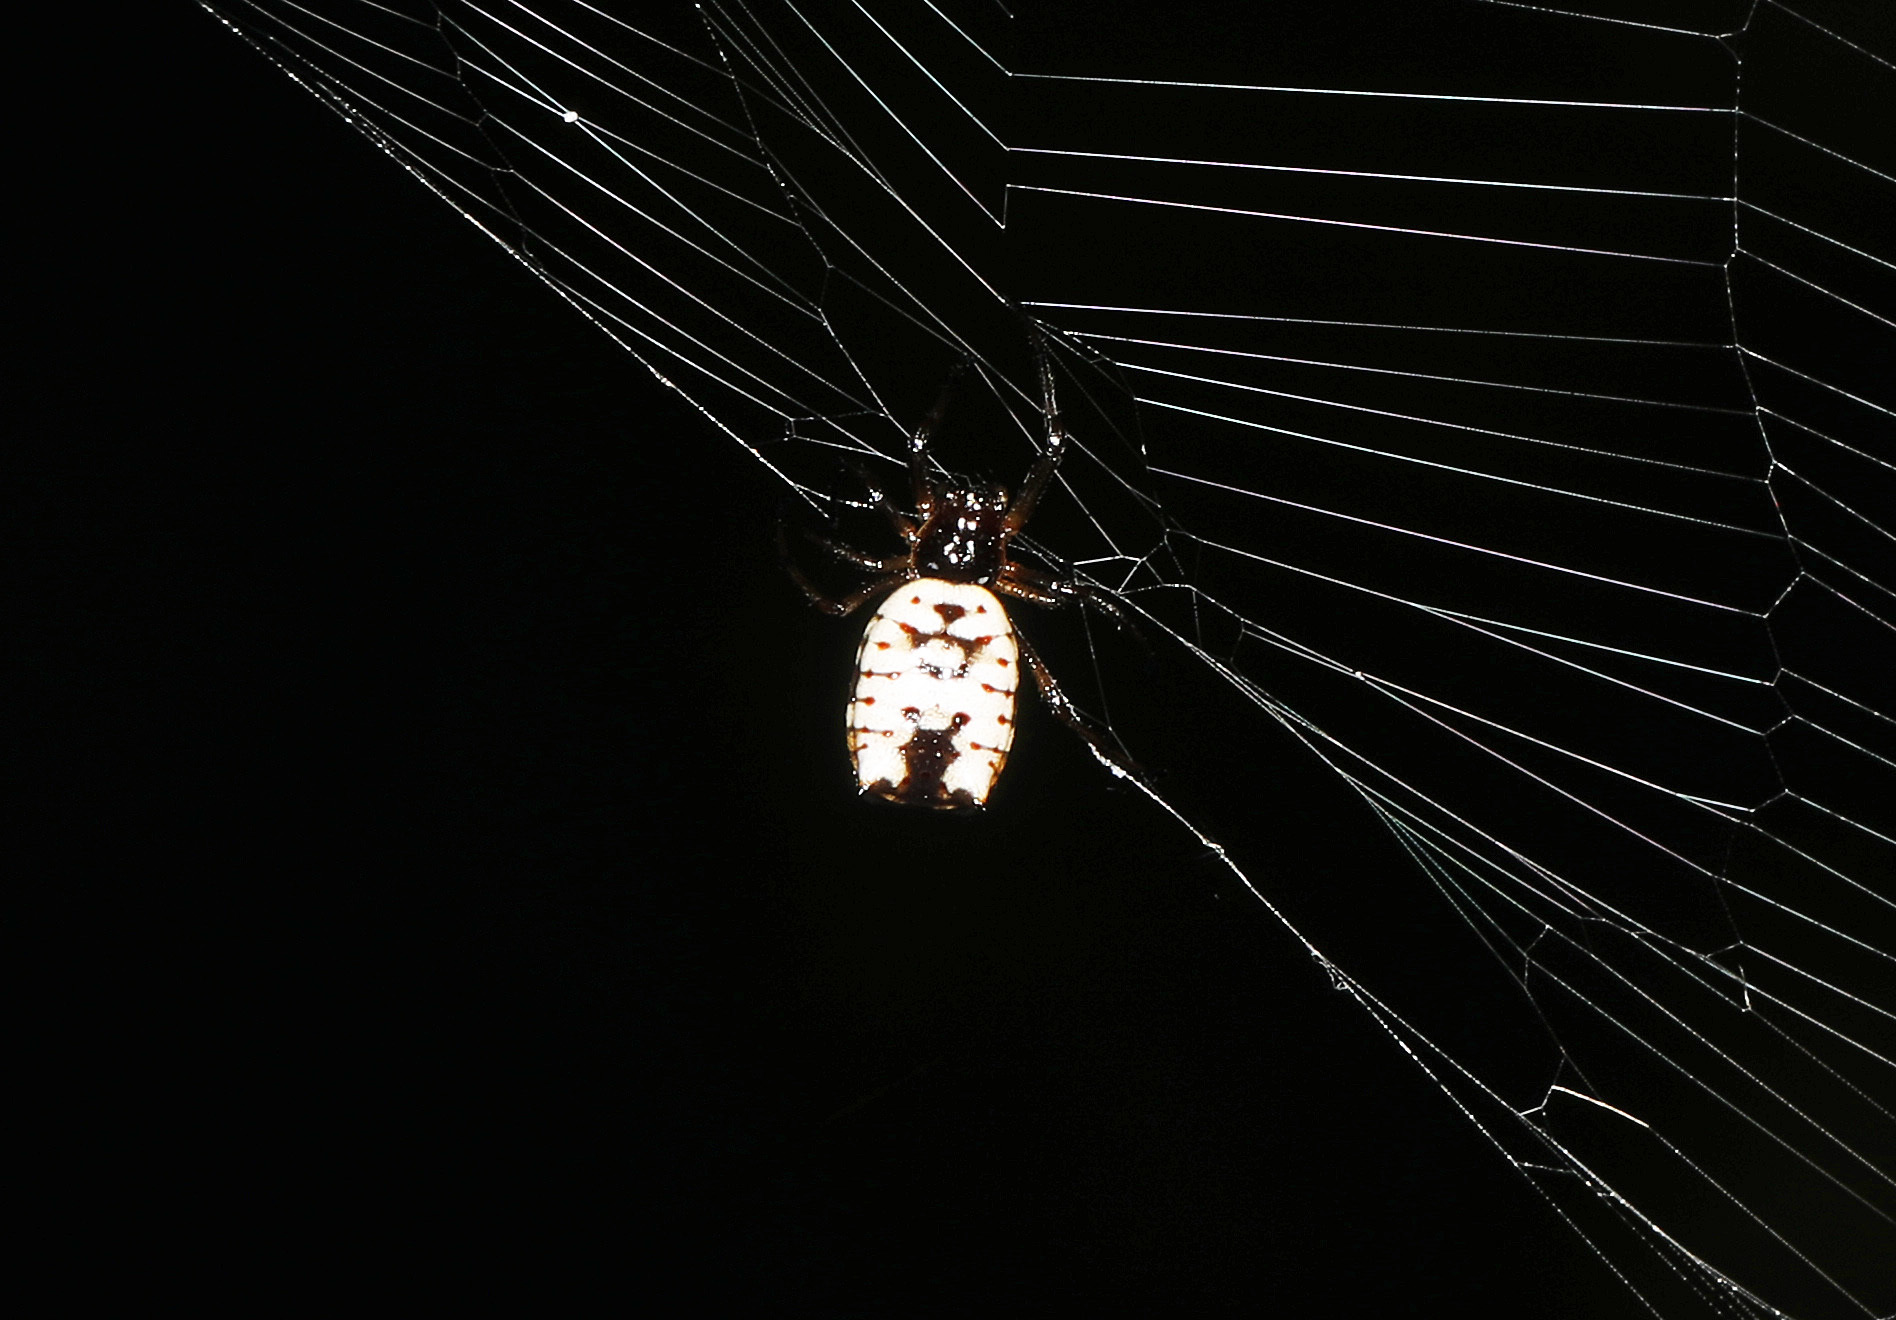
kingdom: Animalia
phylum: Arthropoda
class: Arachnida
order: Araneae
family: Araneidae
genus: Micrathena
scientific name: Micrathena mitrata
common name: Orb weavers
